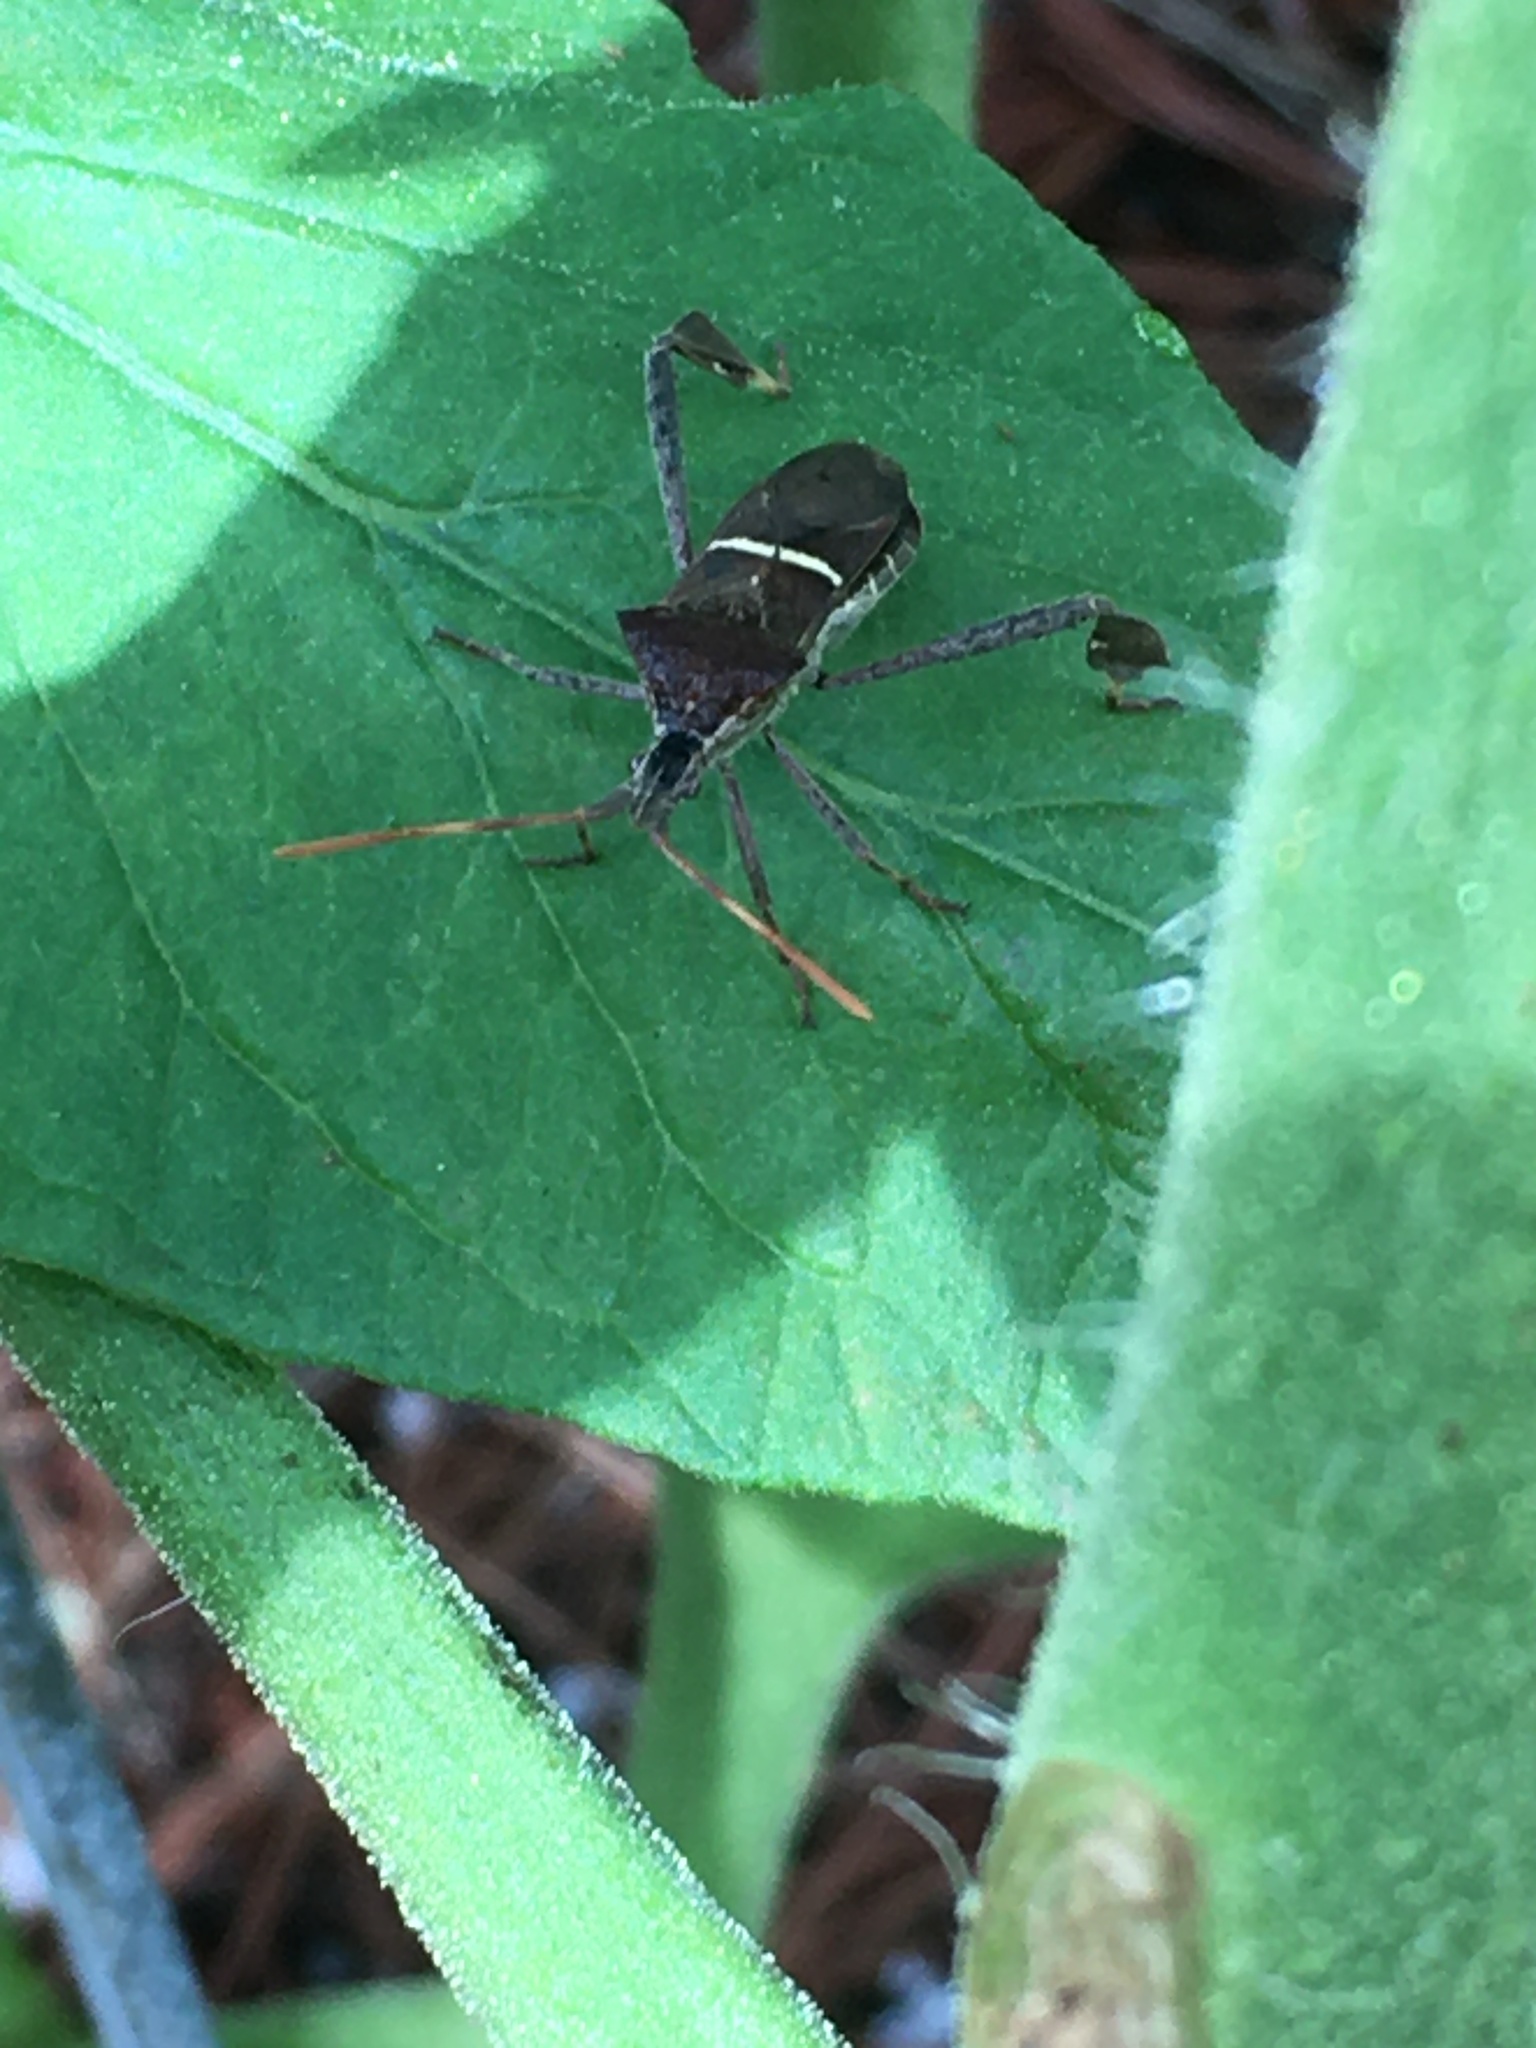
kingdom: Animalia
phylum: Arthropoda
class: Insecta
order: Hemiptera
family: Coreidae
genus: Leptoglossus
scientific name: Leptoglossus phyllopus
